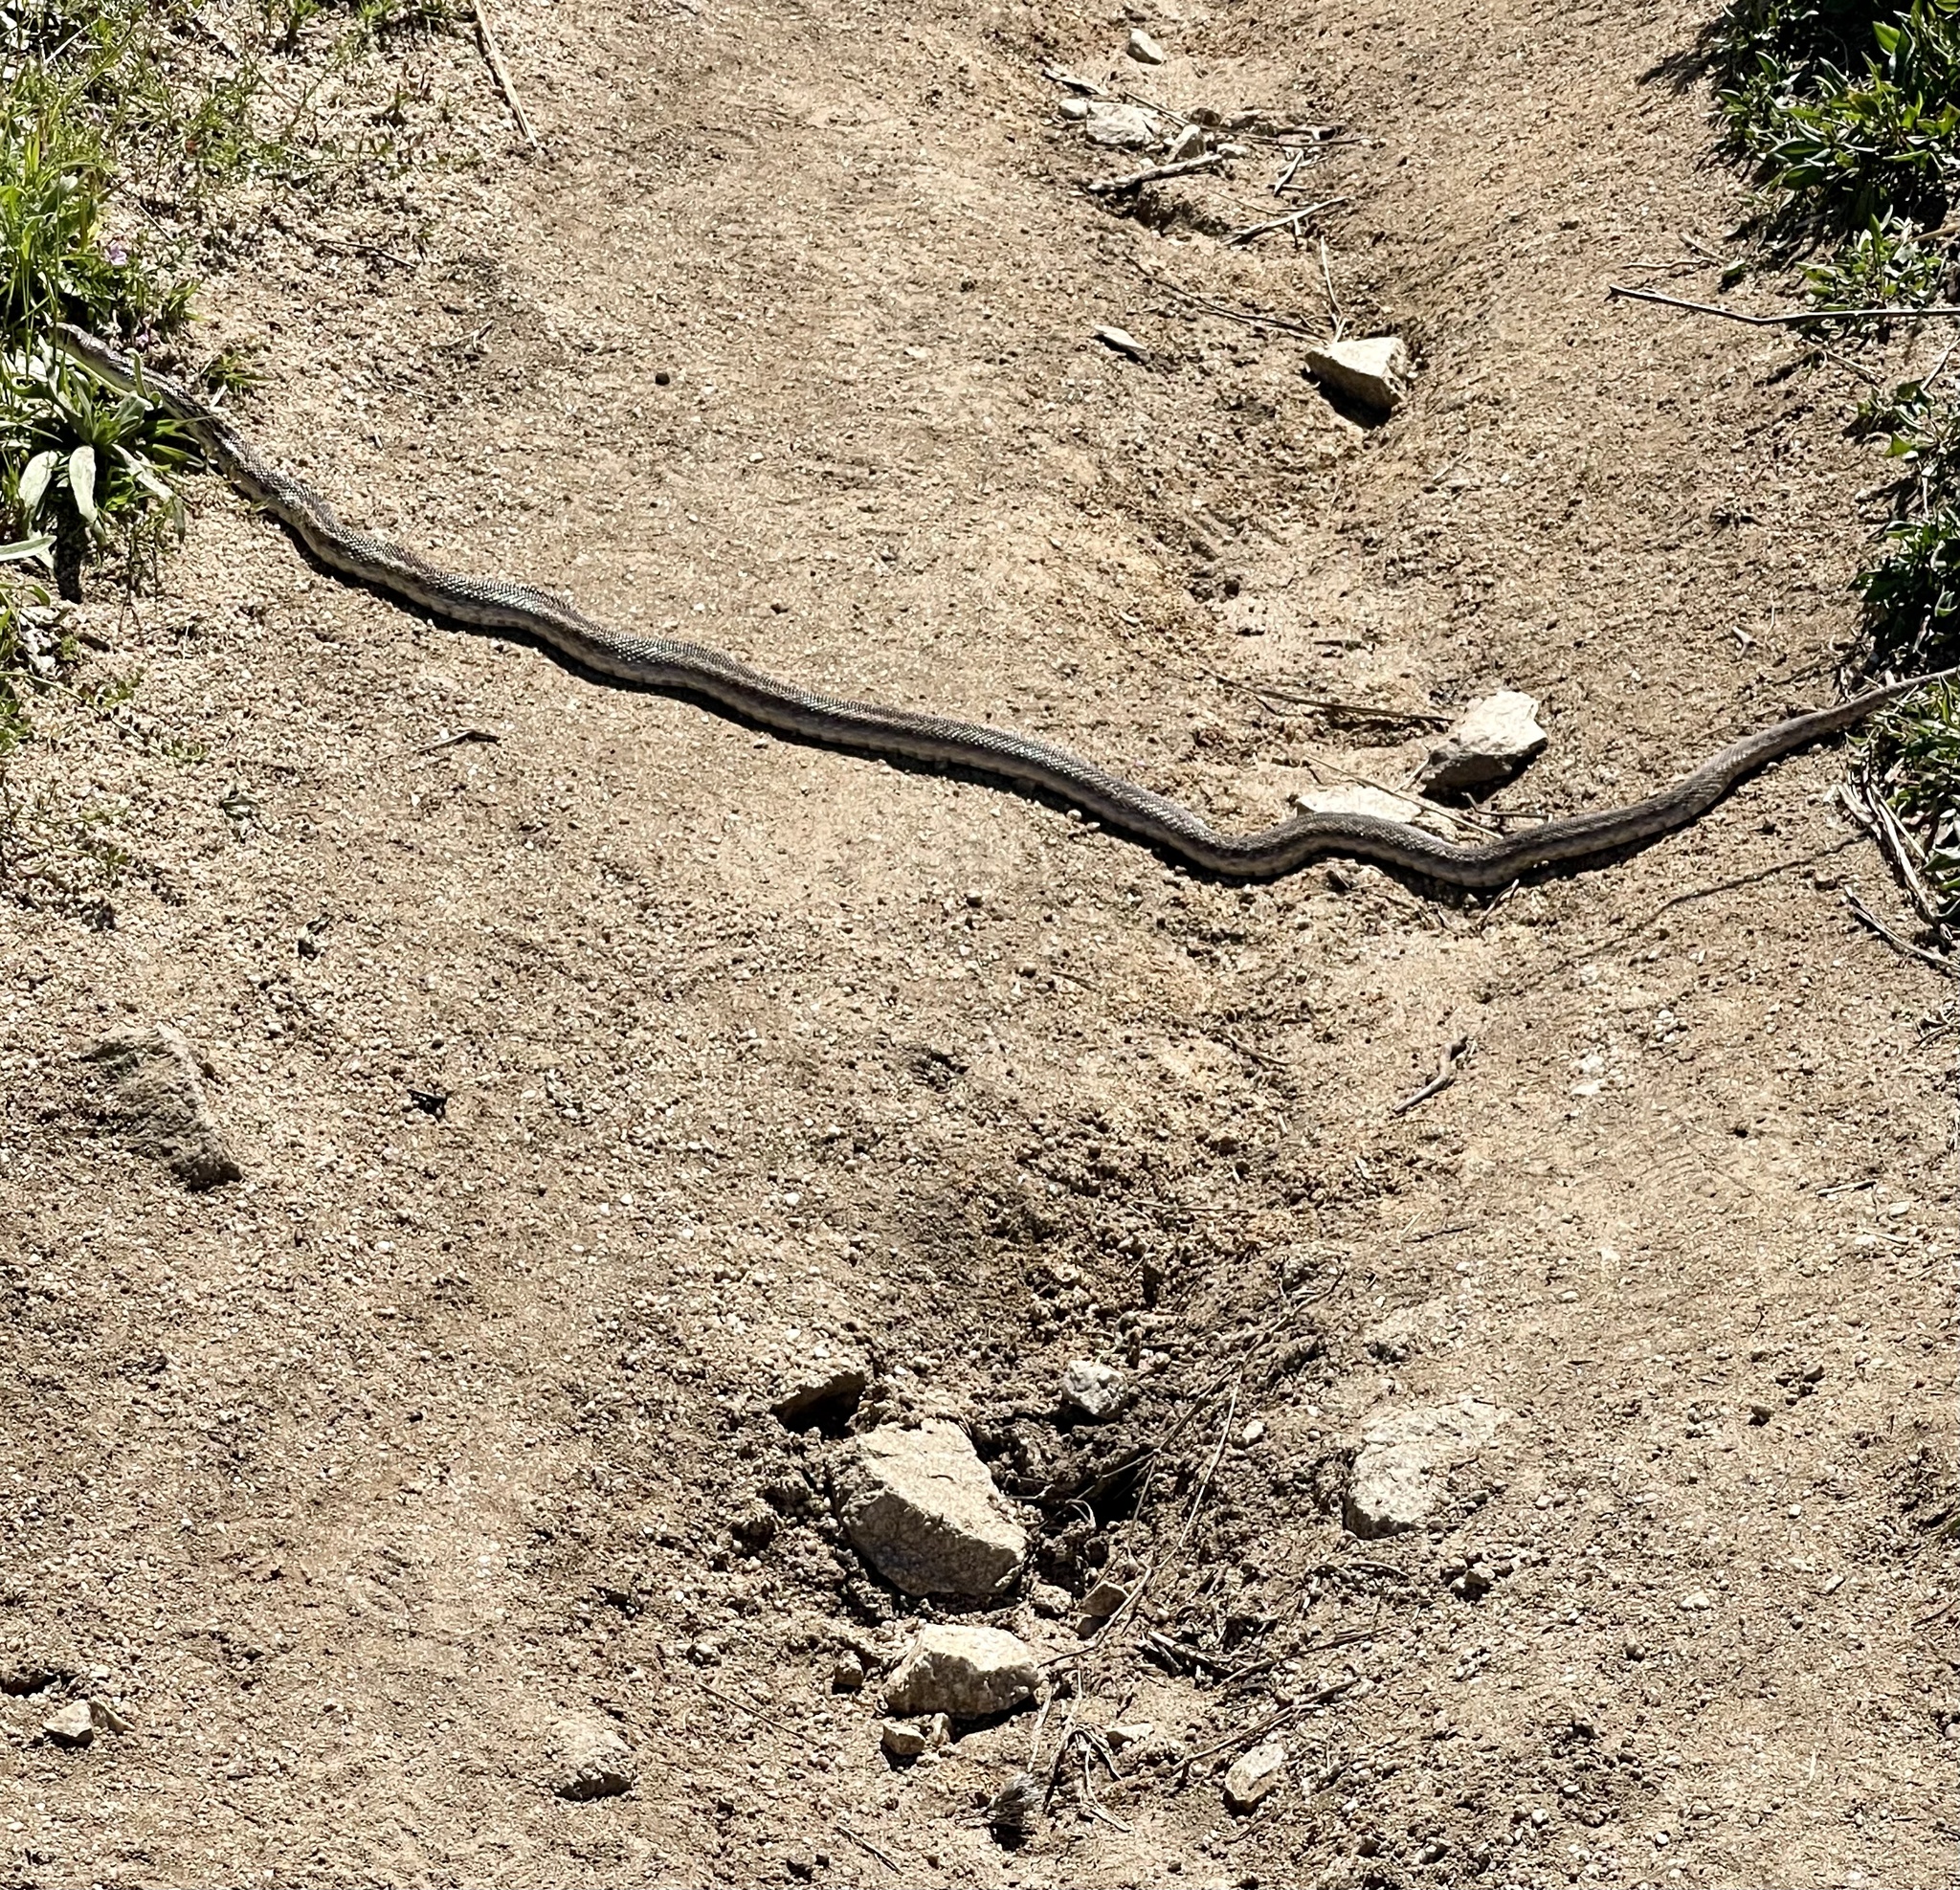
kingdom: Animalia
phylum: Chordata
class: Squamata
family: Colubridae
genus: Pituophis
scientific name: Pituophis catenifer
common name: Gopher snake
